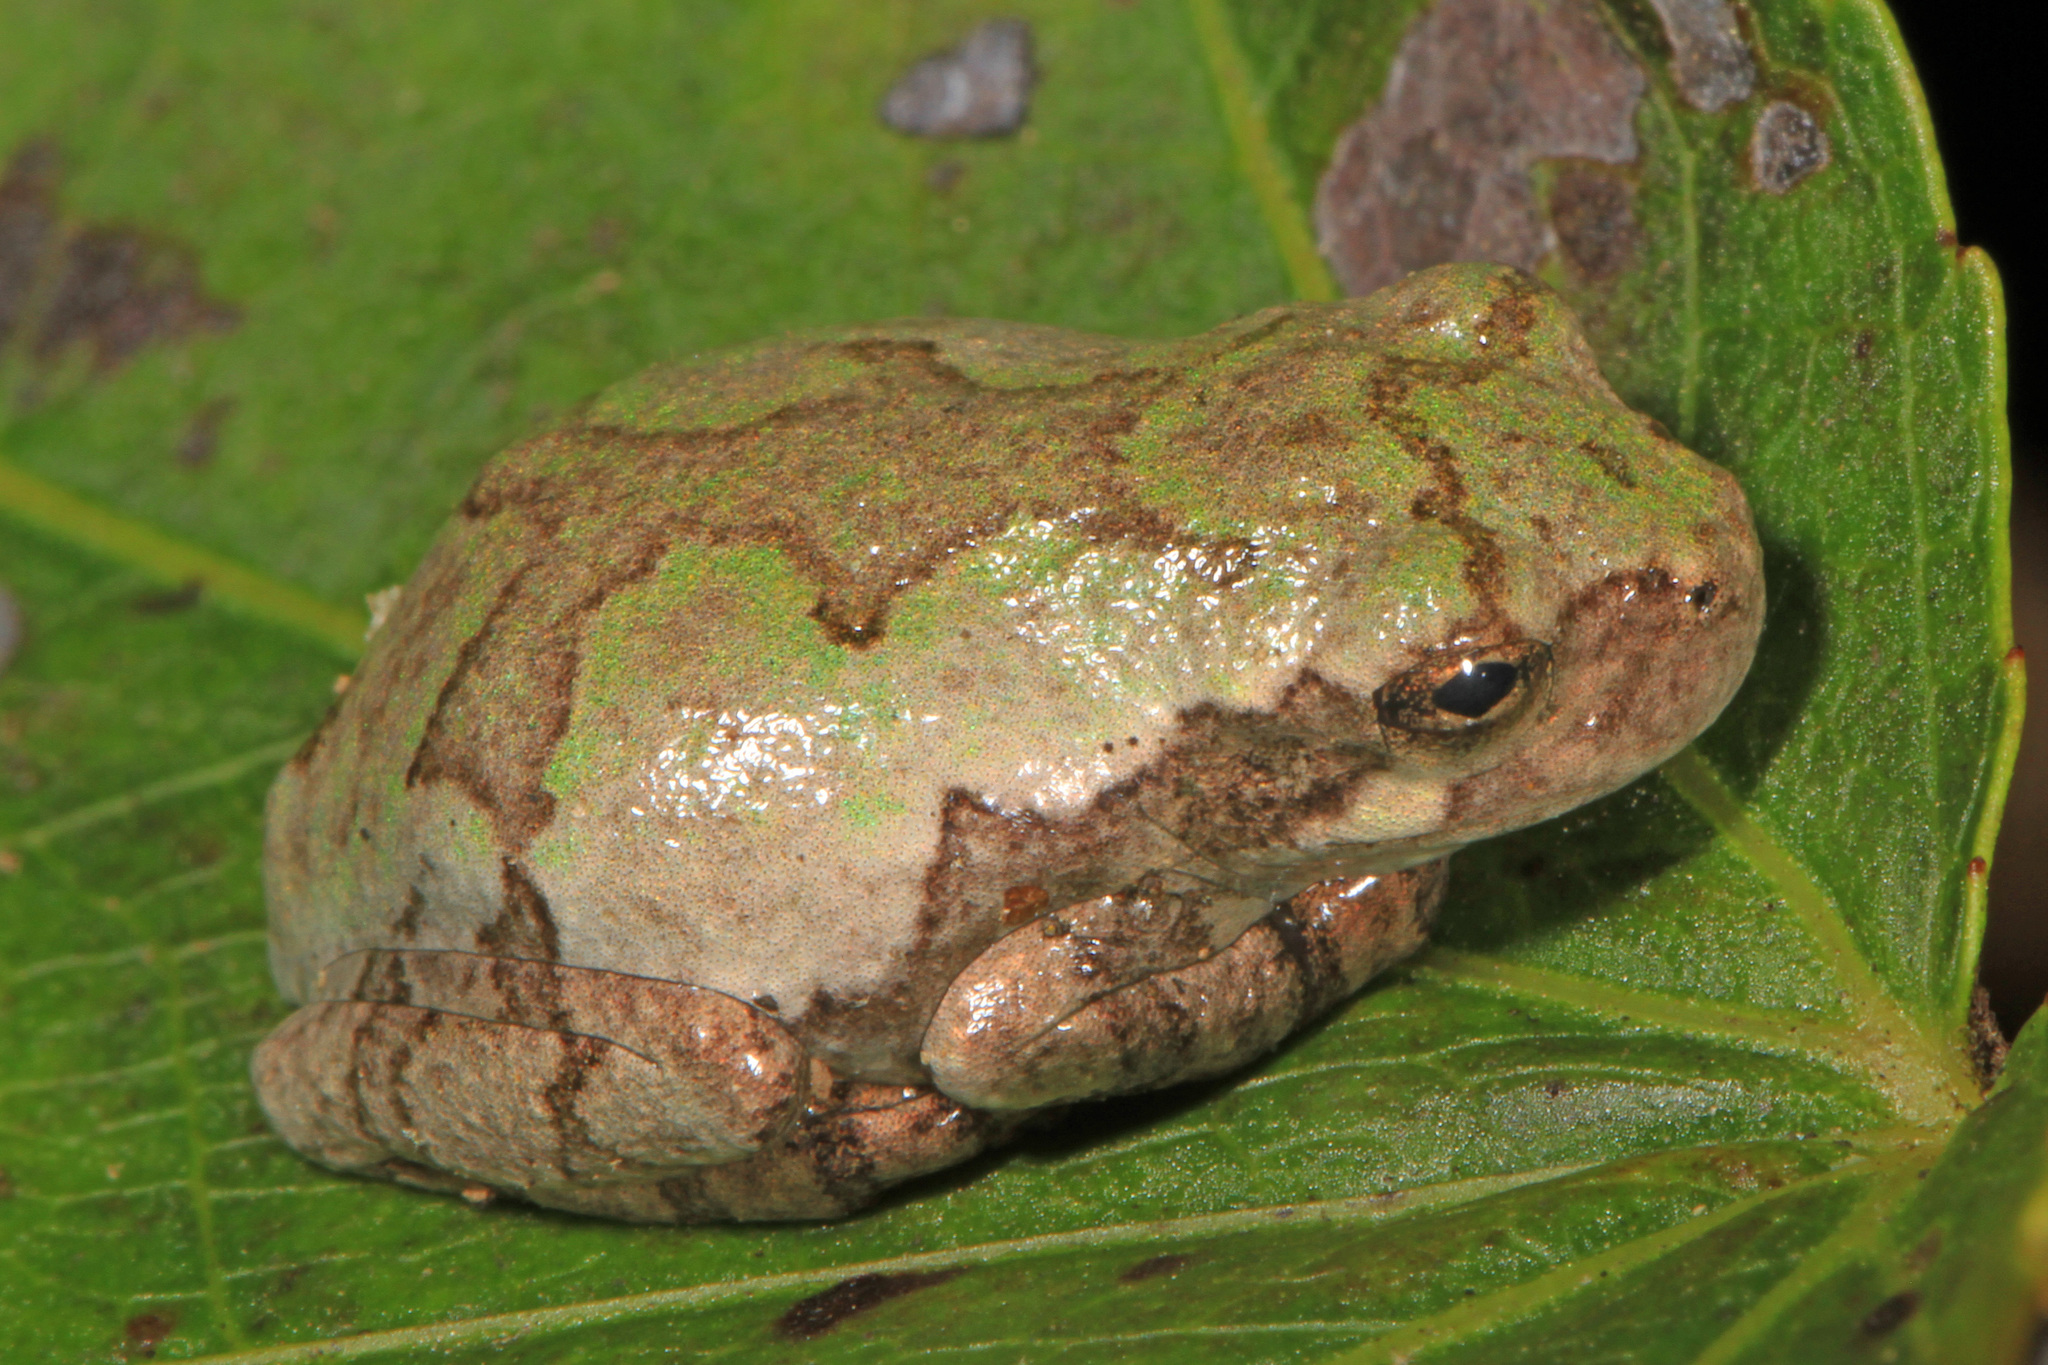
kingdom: Animalia
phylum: Chordata
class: Amphibia
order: Anura
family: Hylidae
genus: Dryophytes
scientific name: Dryophytes chrysoscelis
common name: Cope's gray treefrog
